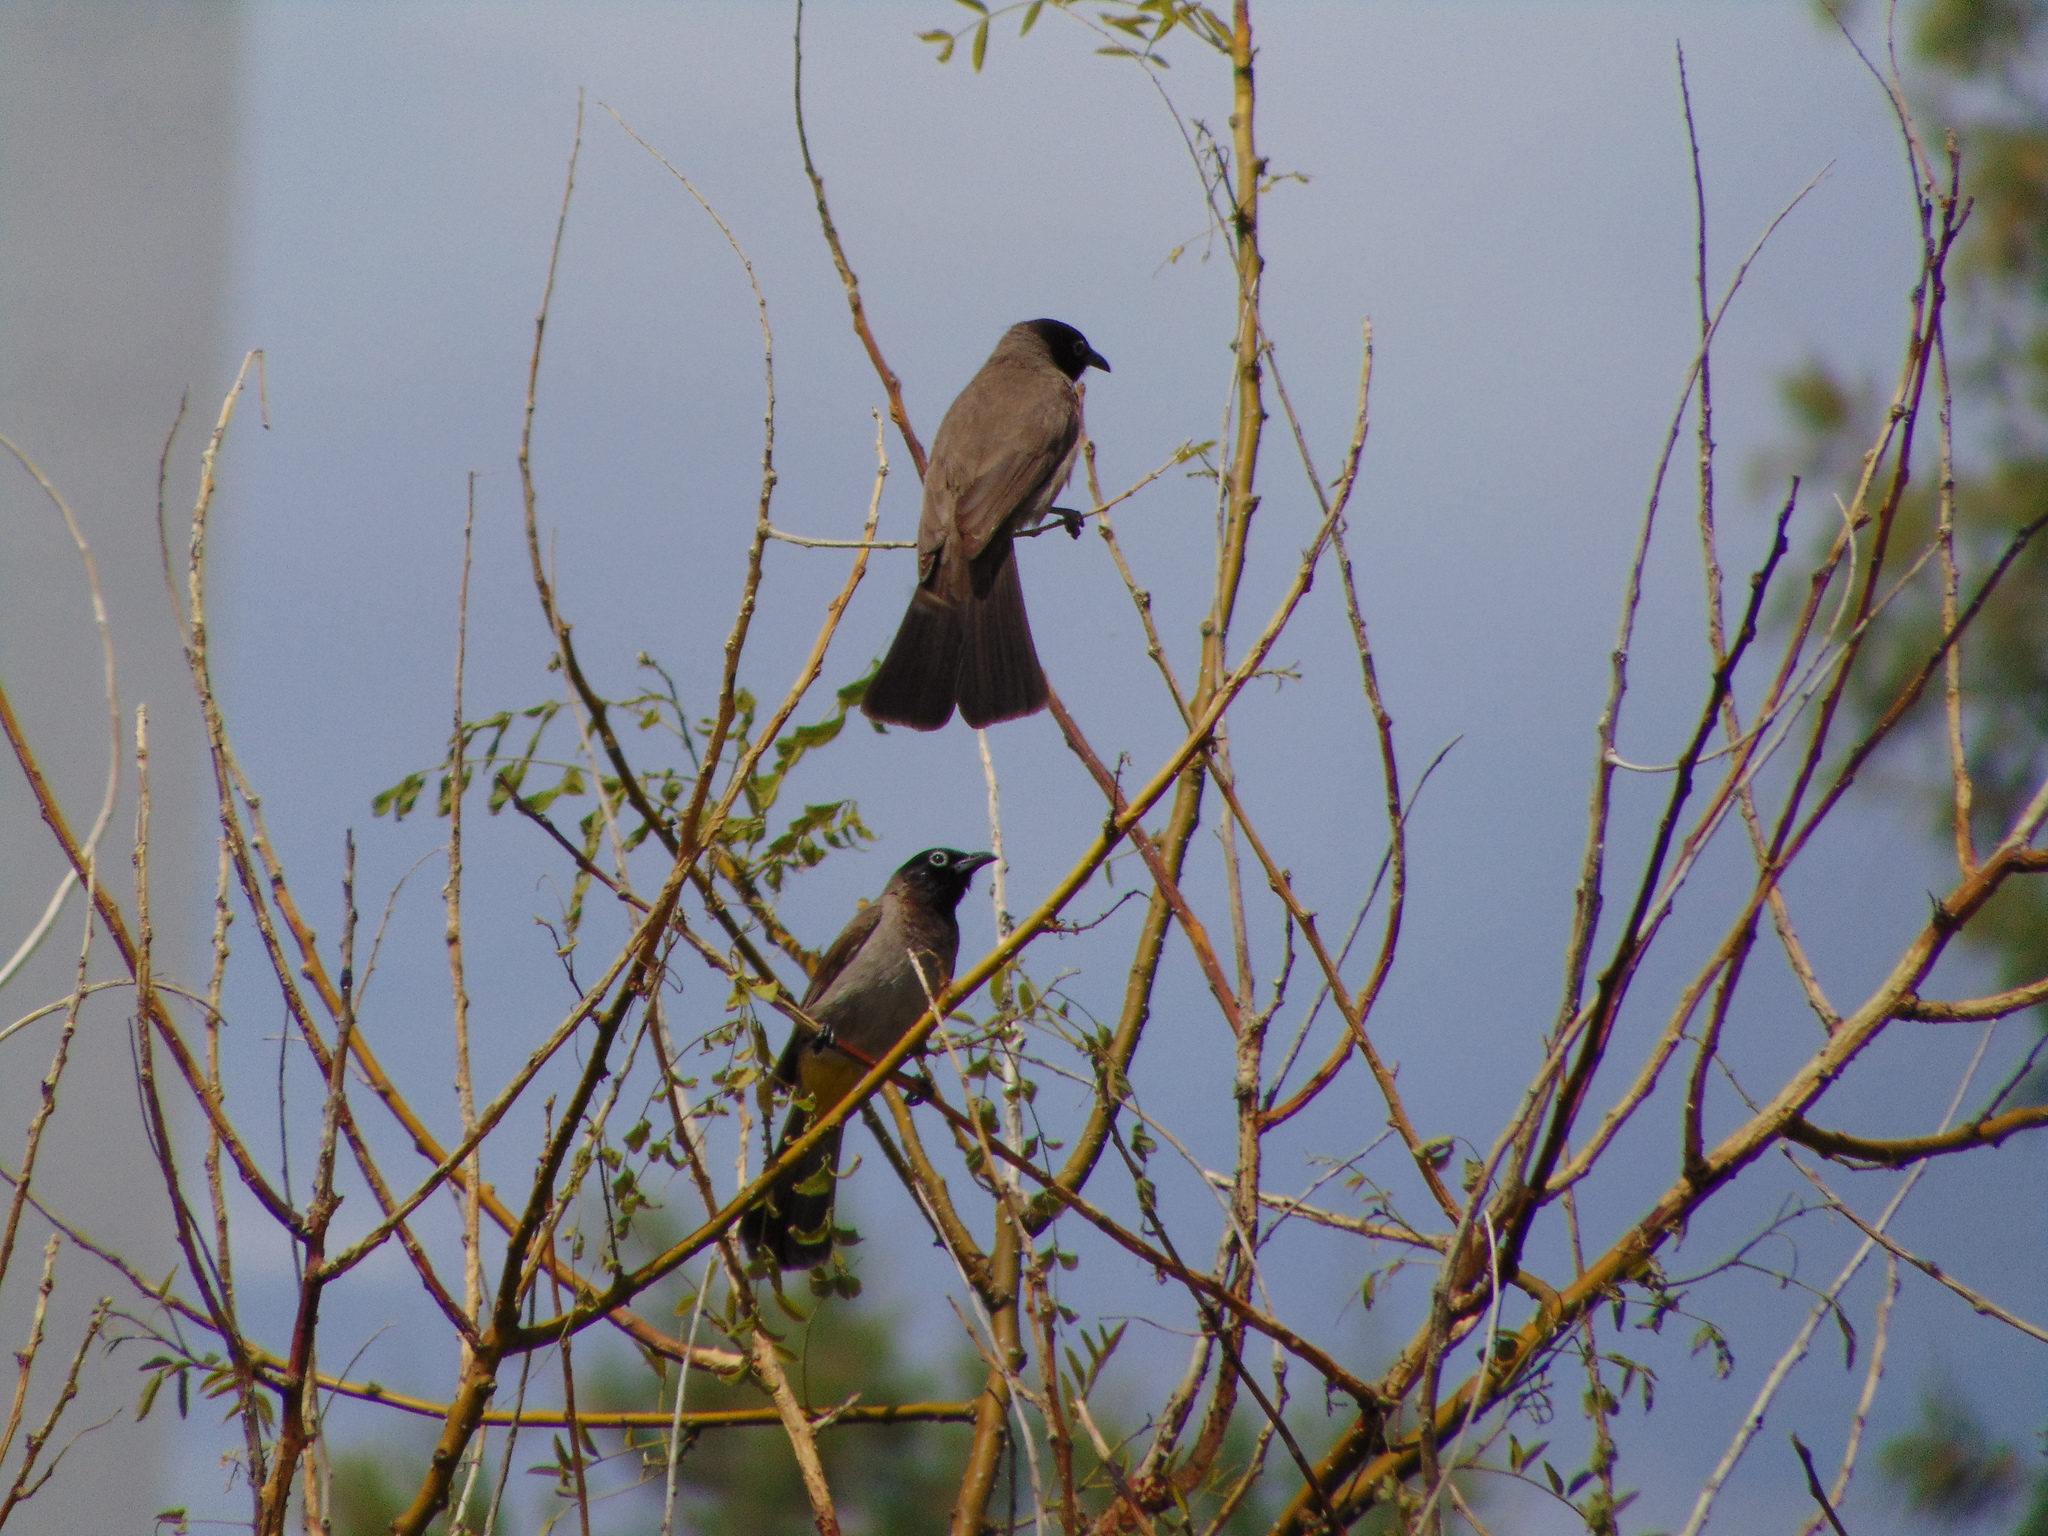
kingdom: Animalia
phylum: Chordata
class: Aves
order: Passeriformes
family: Pycnonotidae
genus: Pycnonotus
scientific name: Pycnonotus xanthopygos
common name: White-spectacled bulbul
